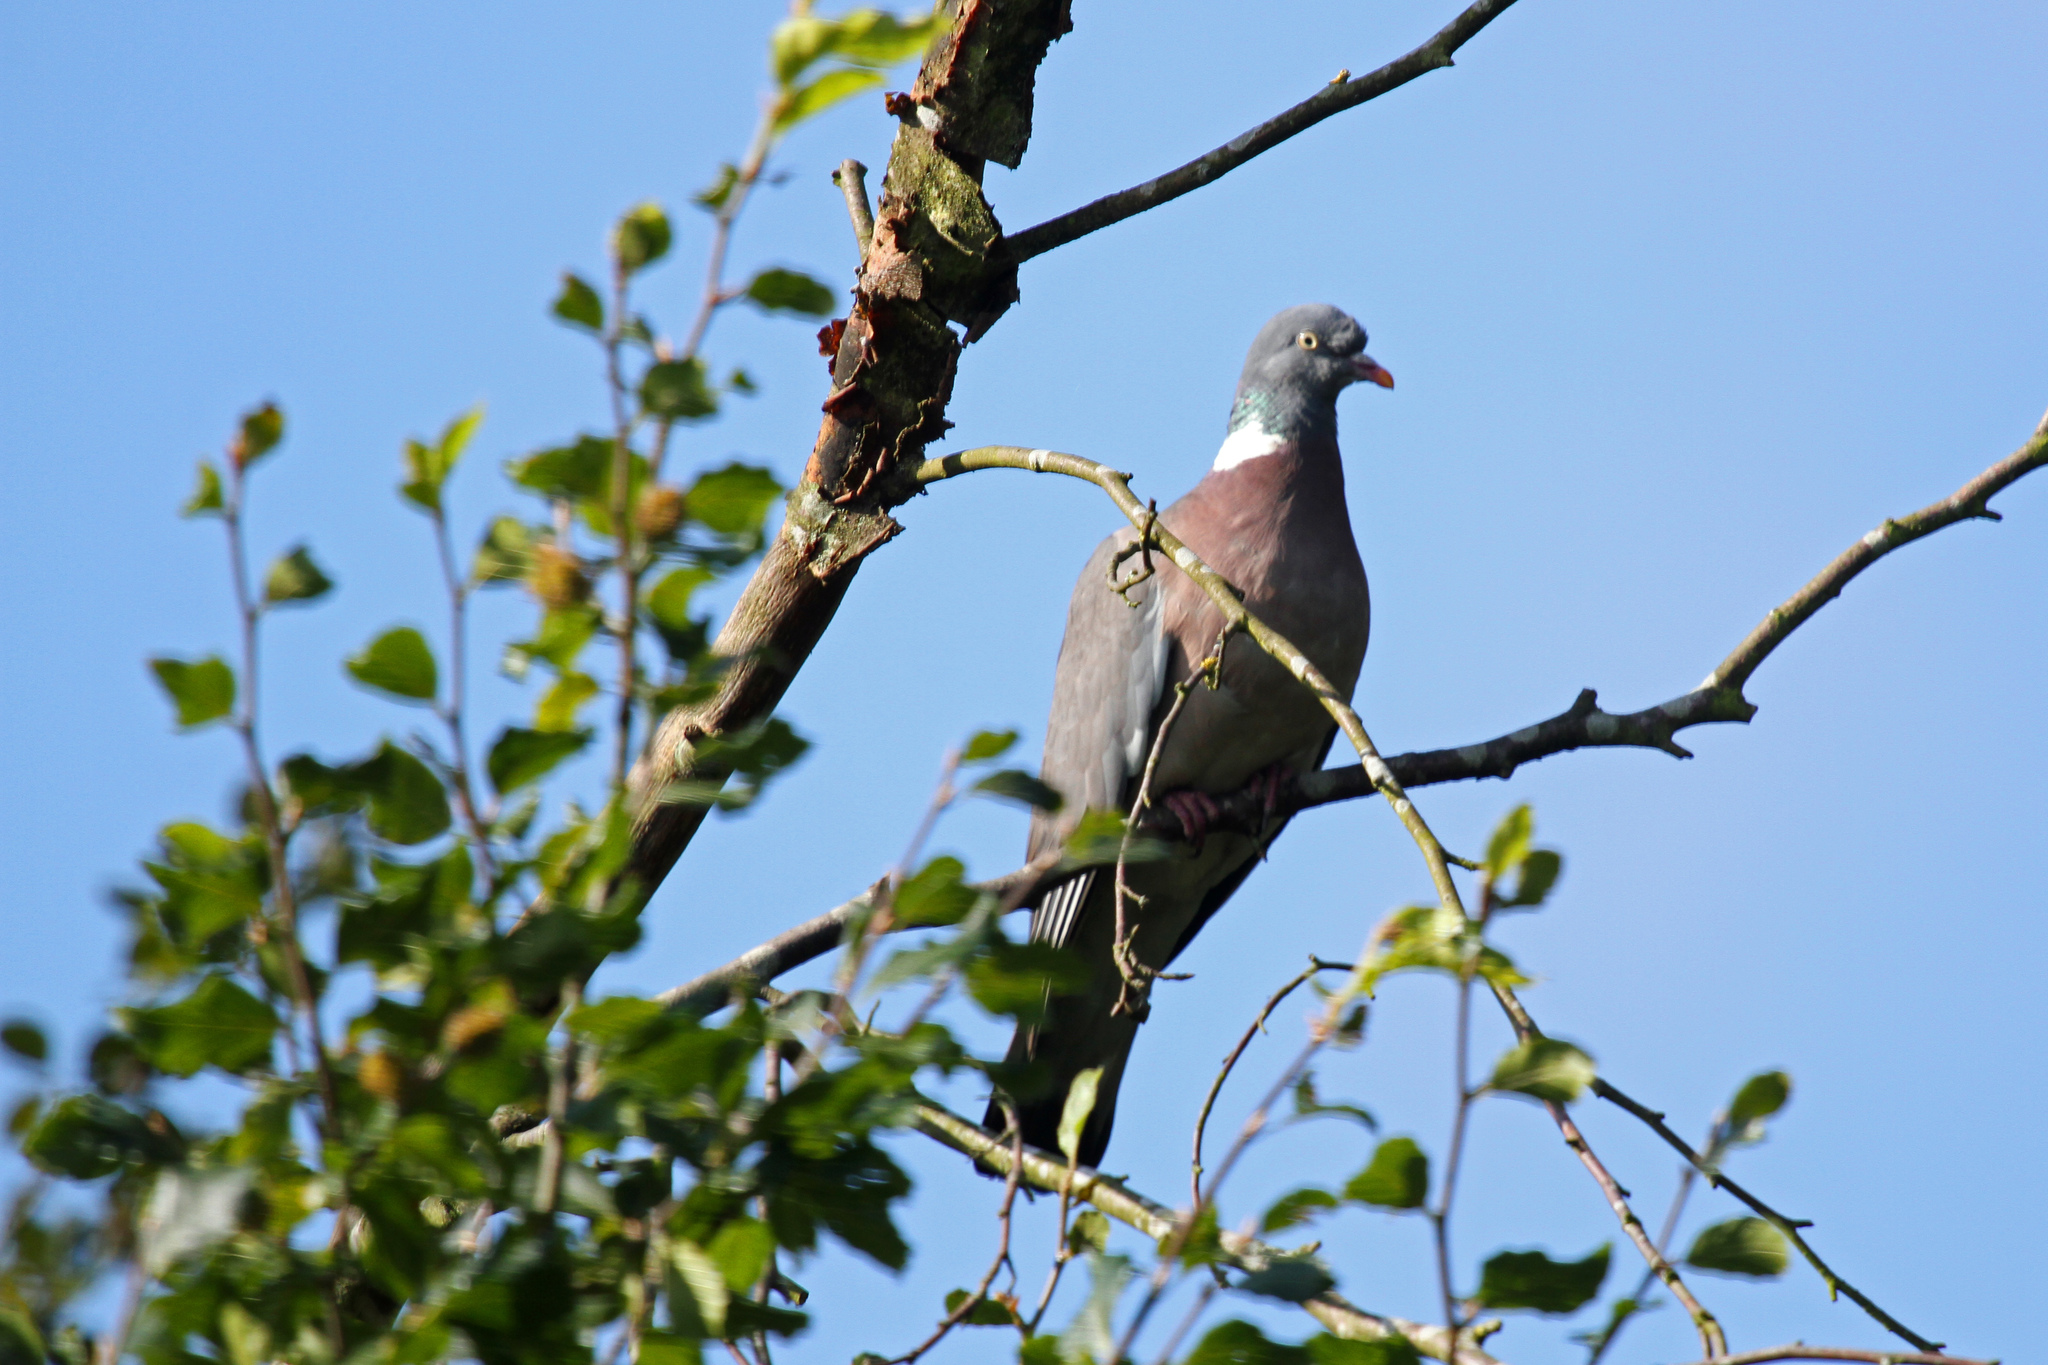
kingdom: Animalia
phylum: Chordata
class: Aves
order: Columbiformes
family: Columbidae
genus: Columba
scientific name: Columba palumbus
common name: Common wood pigeon
